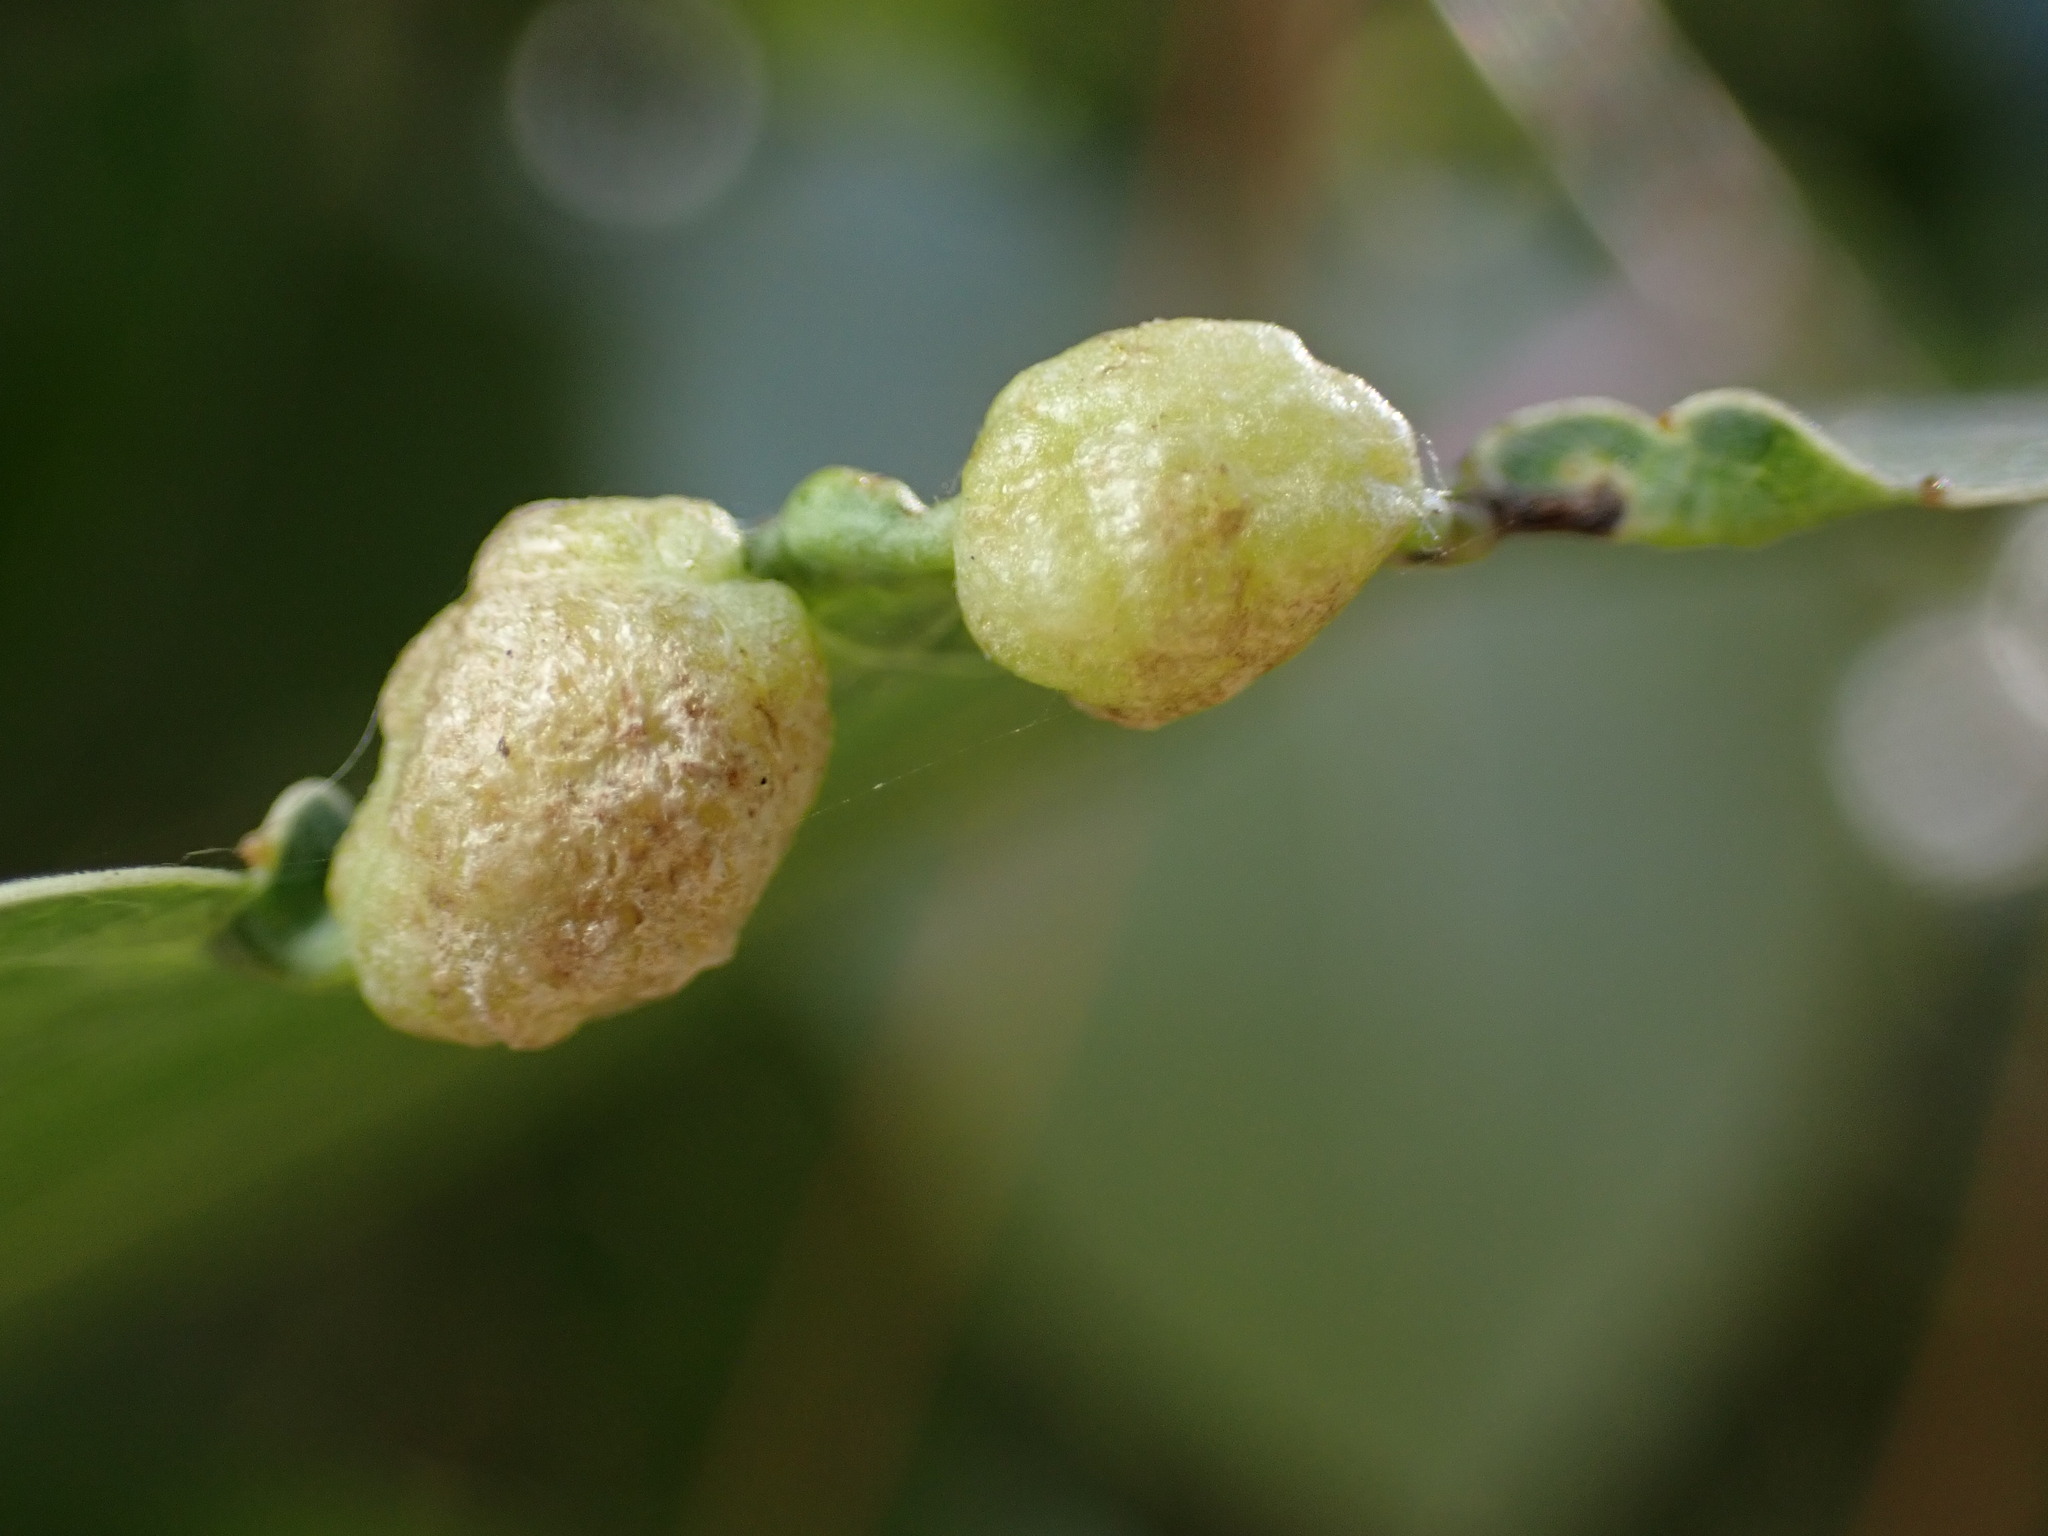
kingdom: Animalia
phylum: Arthropoda
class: Insecta
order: Hemiptera
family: Aphididae
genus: Thecabius
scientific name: Thecabius populimonilis
